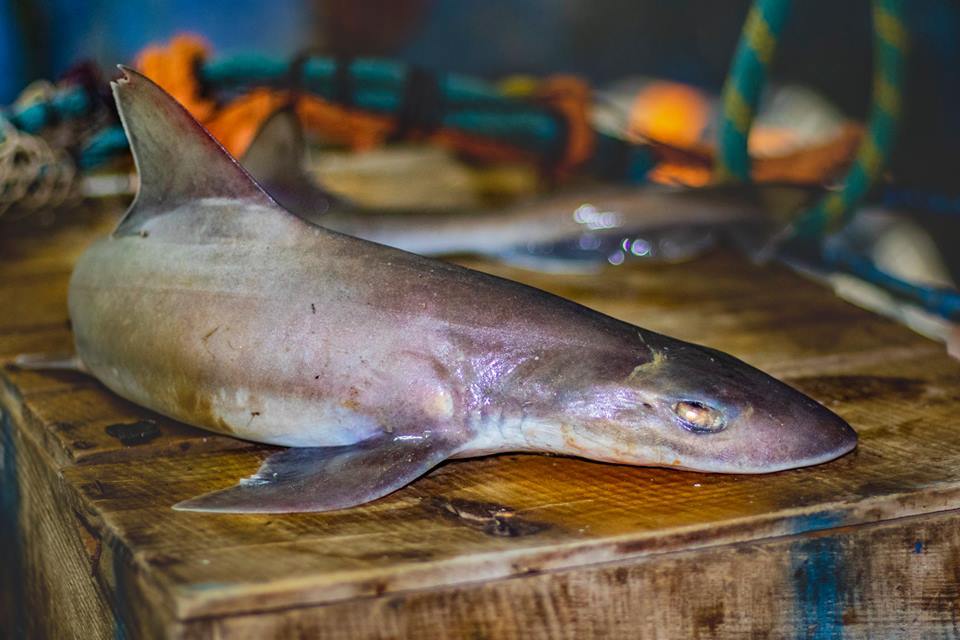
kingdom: Animalia
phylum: Chordata
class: Elasmobranchii
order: Carcharhiniformes
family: Triakidae
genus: Mustelus
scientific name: Mustelus mustelus
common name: Smooth-hound
